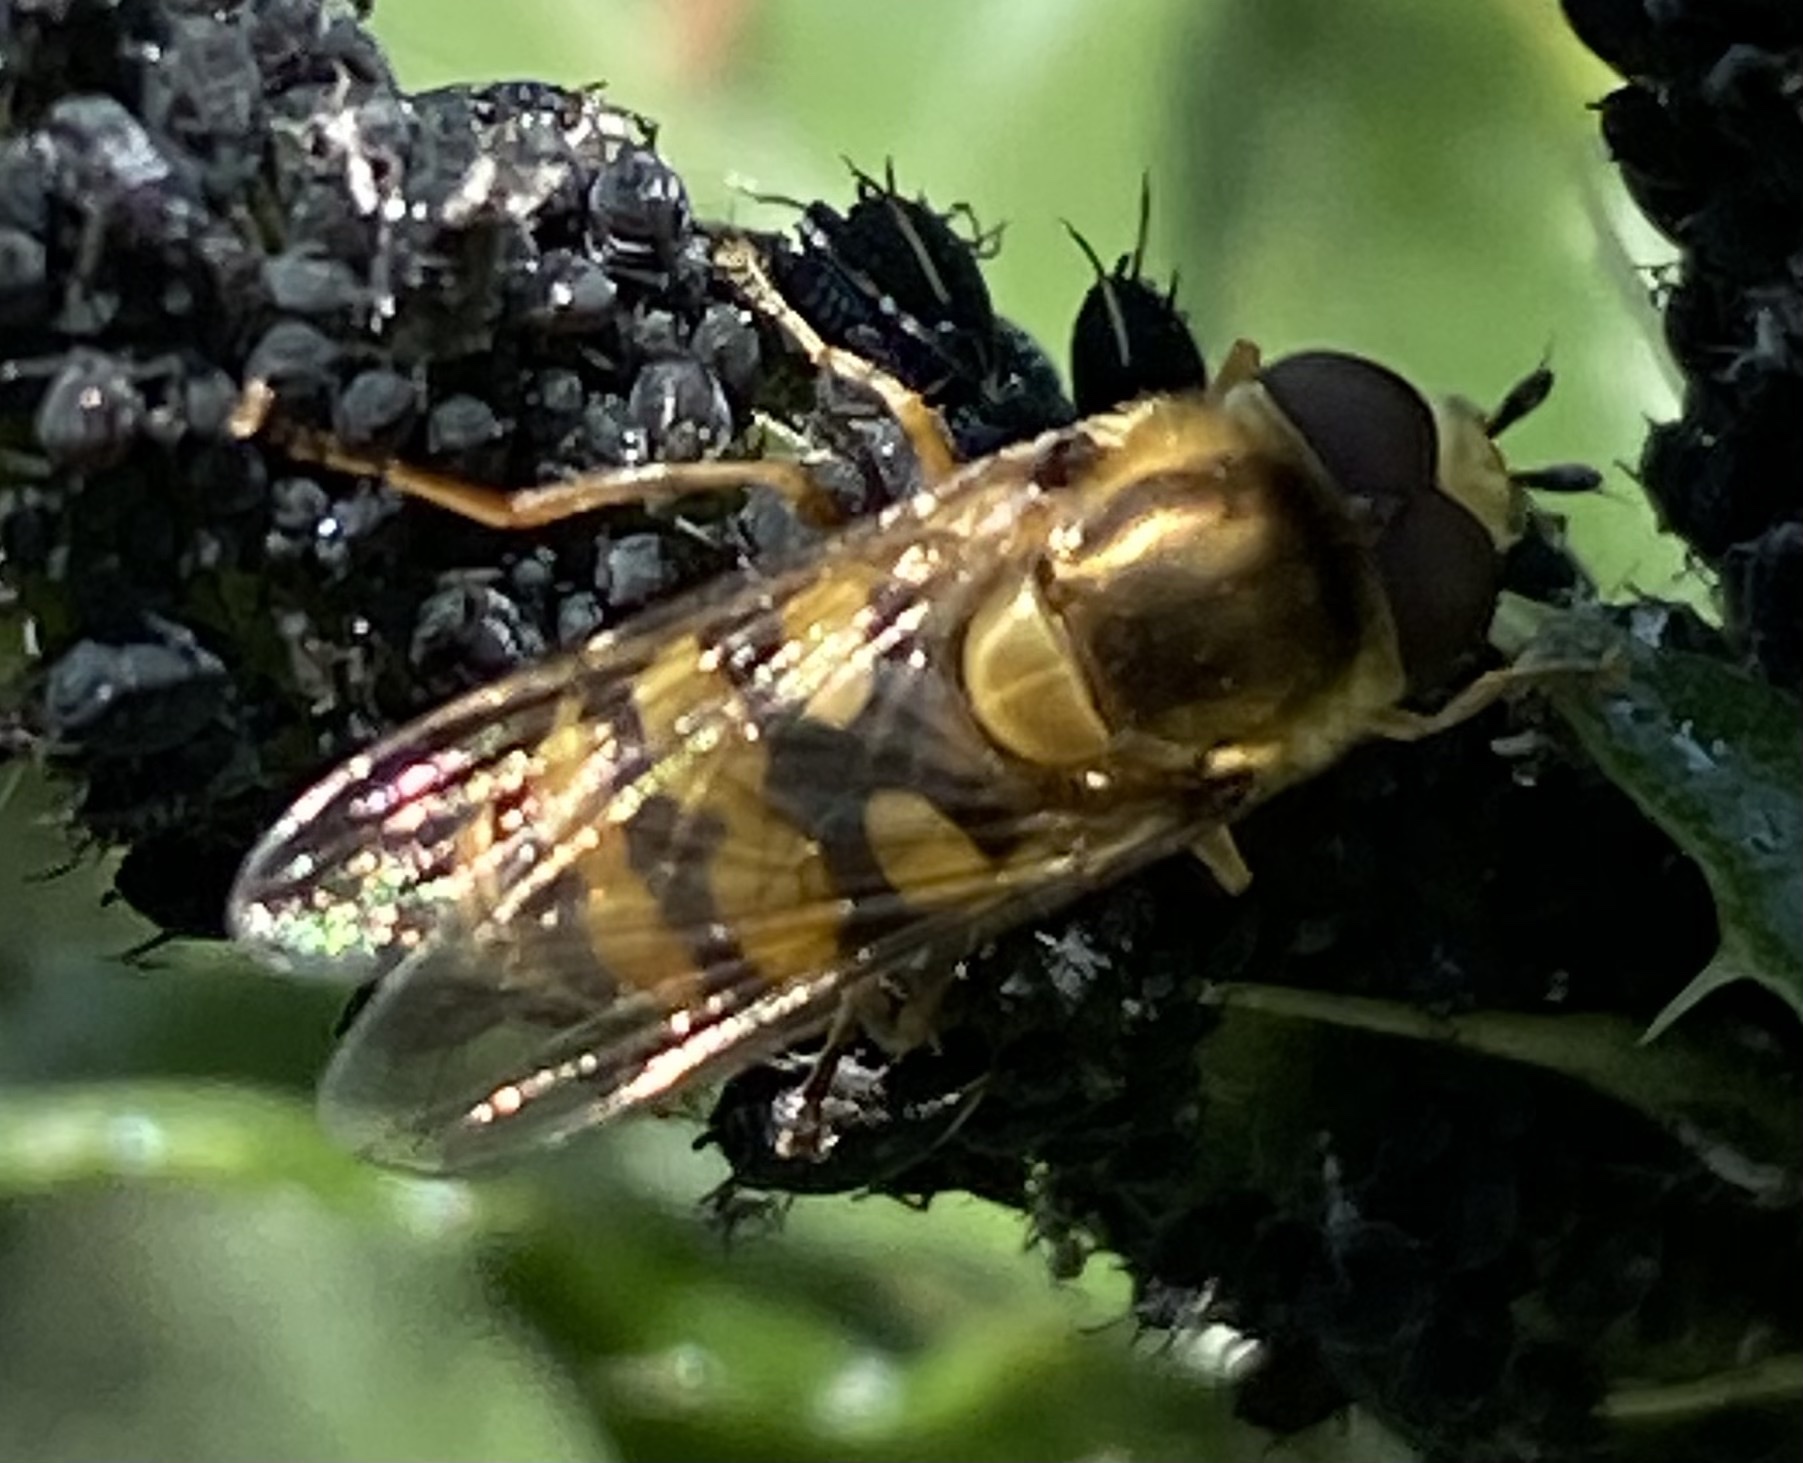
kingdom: Animalia
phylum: Arthropoda
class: Insecta
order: Diptera
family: Syrphidae
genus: Eupeodes
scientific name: Eupeodes corollae
